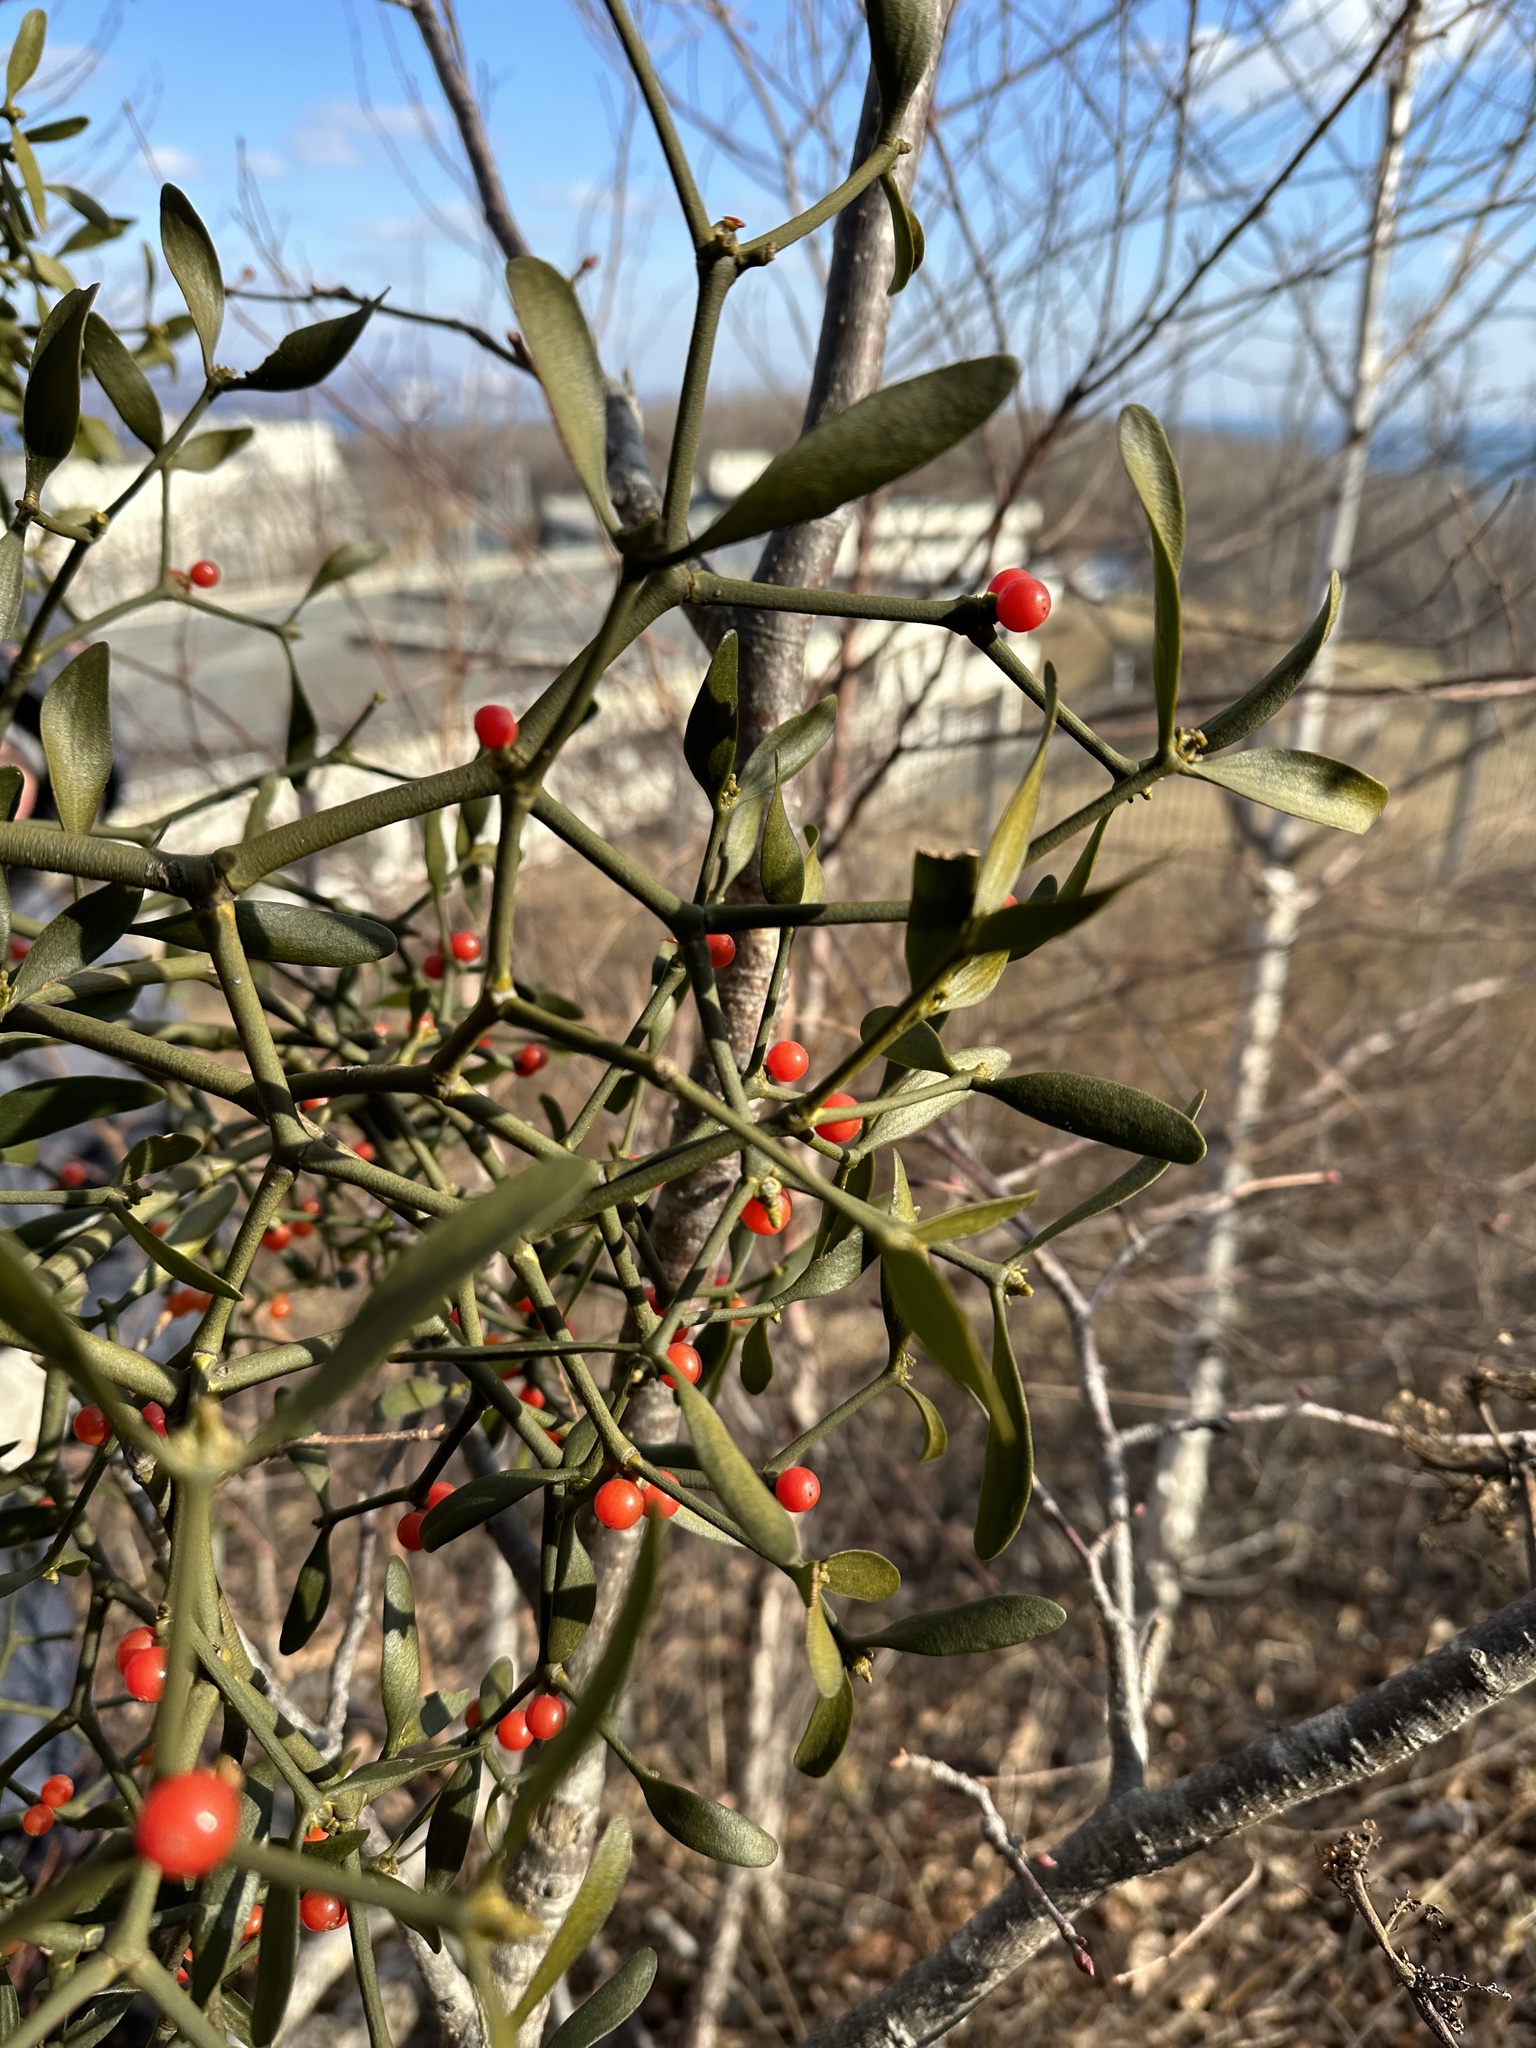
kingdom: Plantae
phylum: Tracheophyta
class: Magnoliopsida
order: Santalales
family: Viscaceae
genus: Viscum
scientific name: Viscum coloratum
